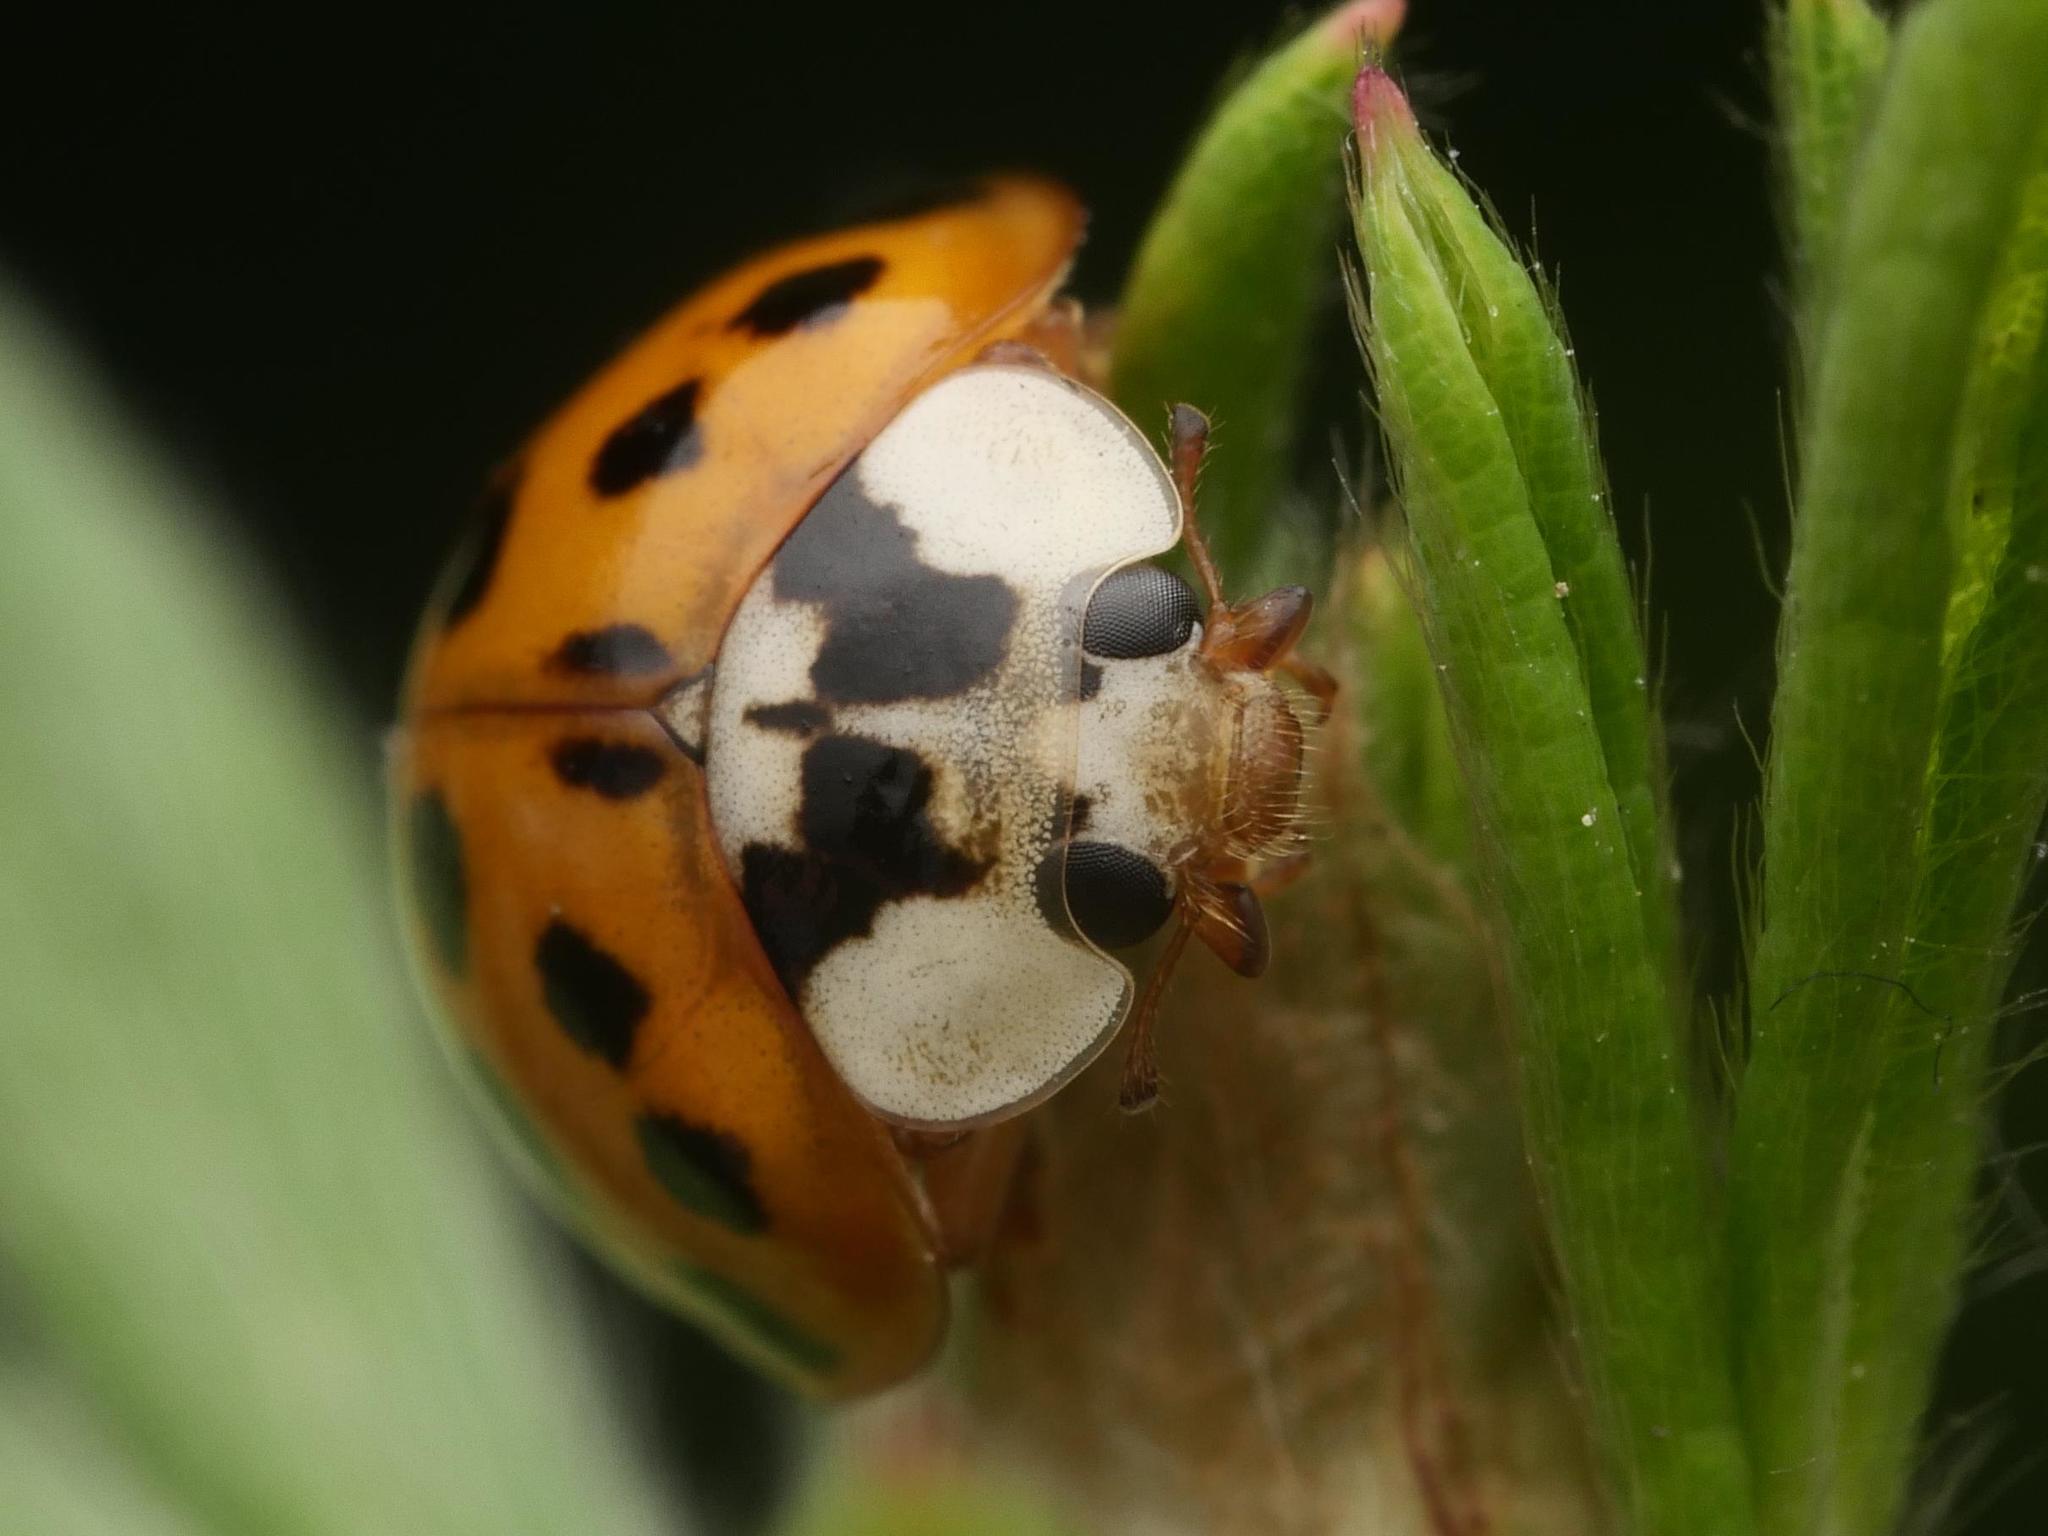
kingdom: Animalia
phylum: Arthropoda
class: Insecta
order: Coleoptera
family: Coccinellidae
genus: Harmonia
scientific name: Harmonia axyridis
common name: Harlequin ladybird
